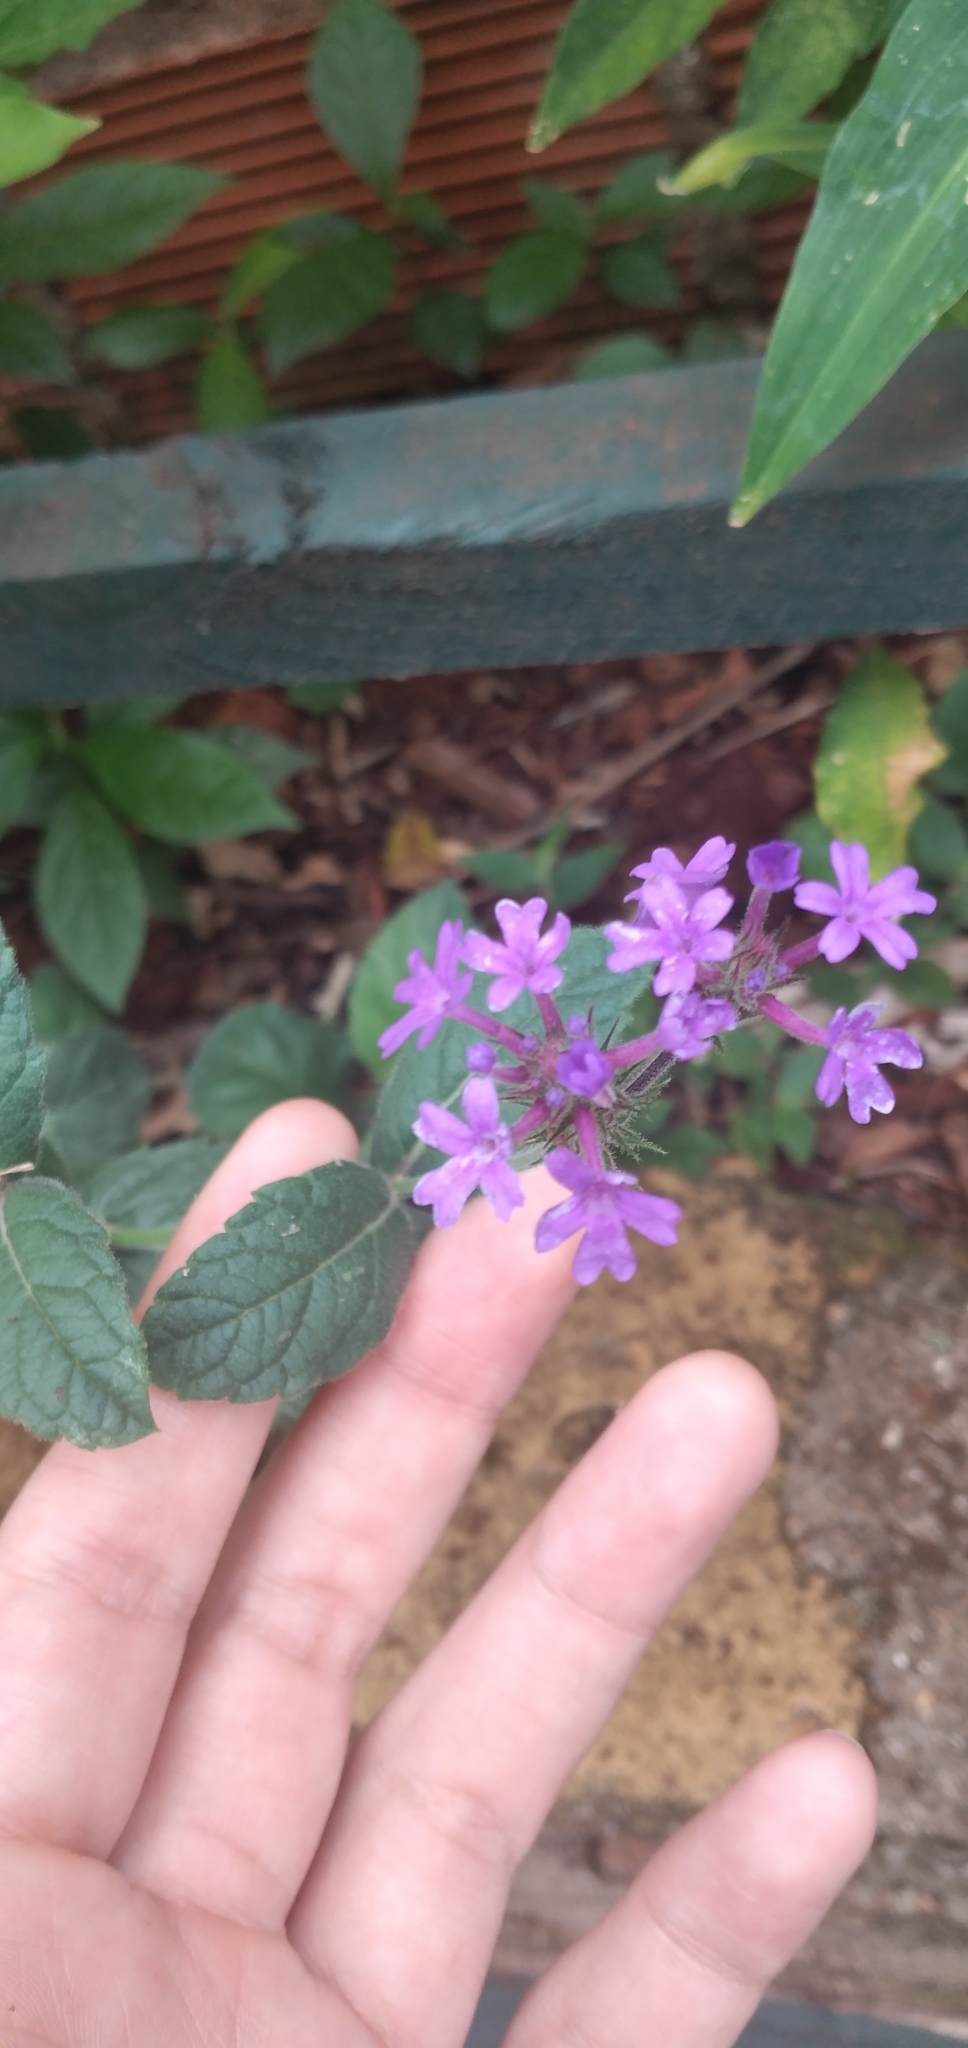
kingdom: Plantae
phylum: Tracheophyta
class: Magnoliopsida
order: Lamiales
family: Verbenaceae
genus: Verbena
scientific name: Verbena nana
